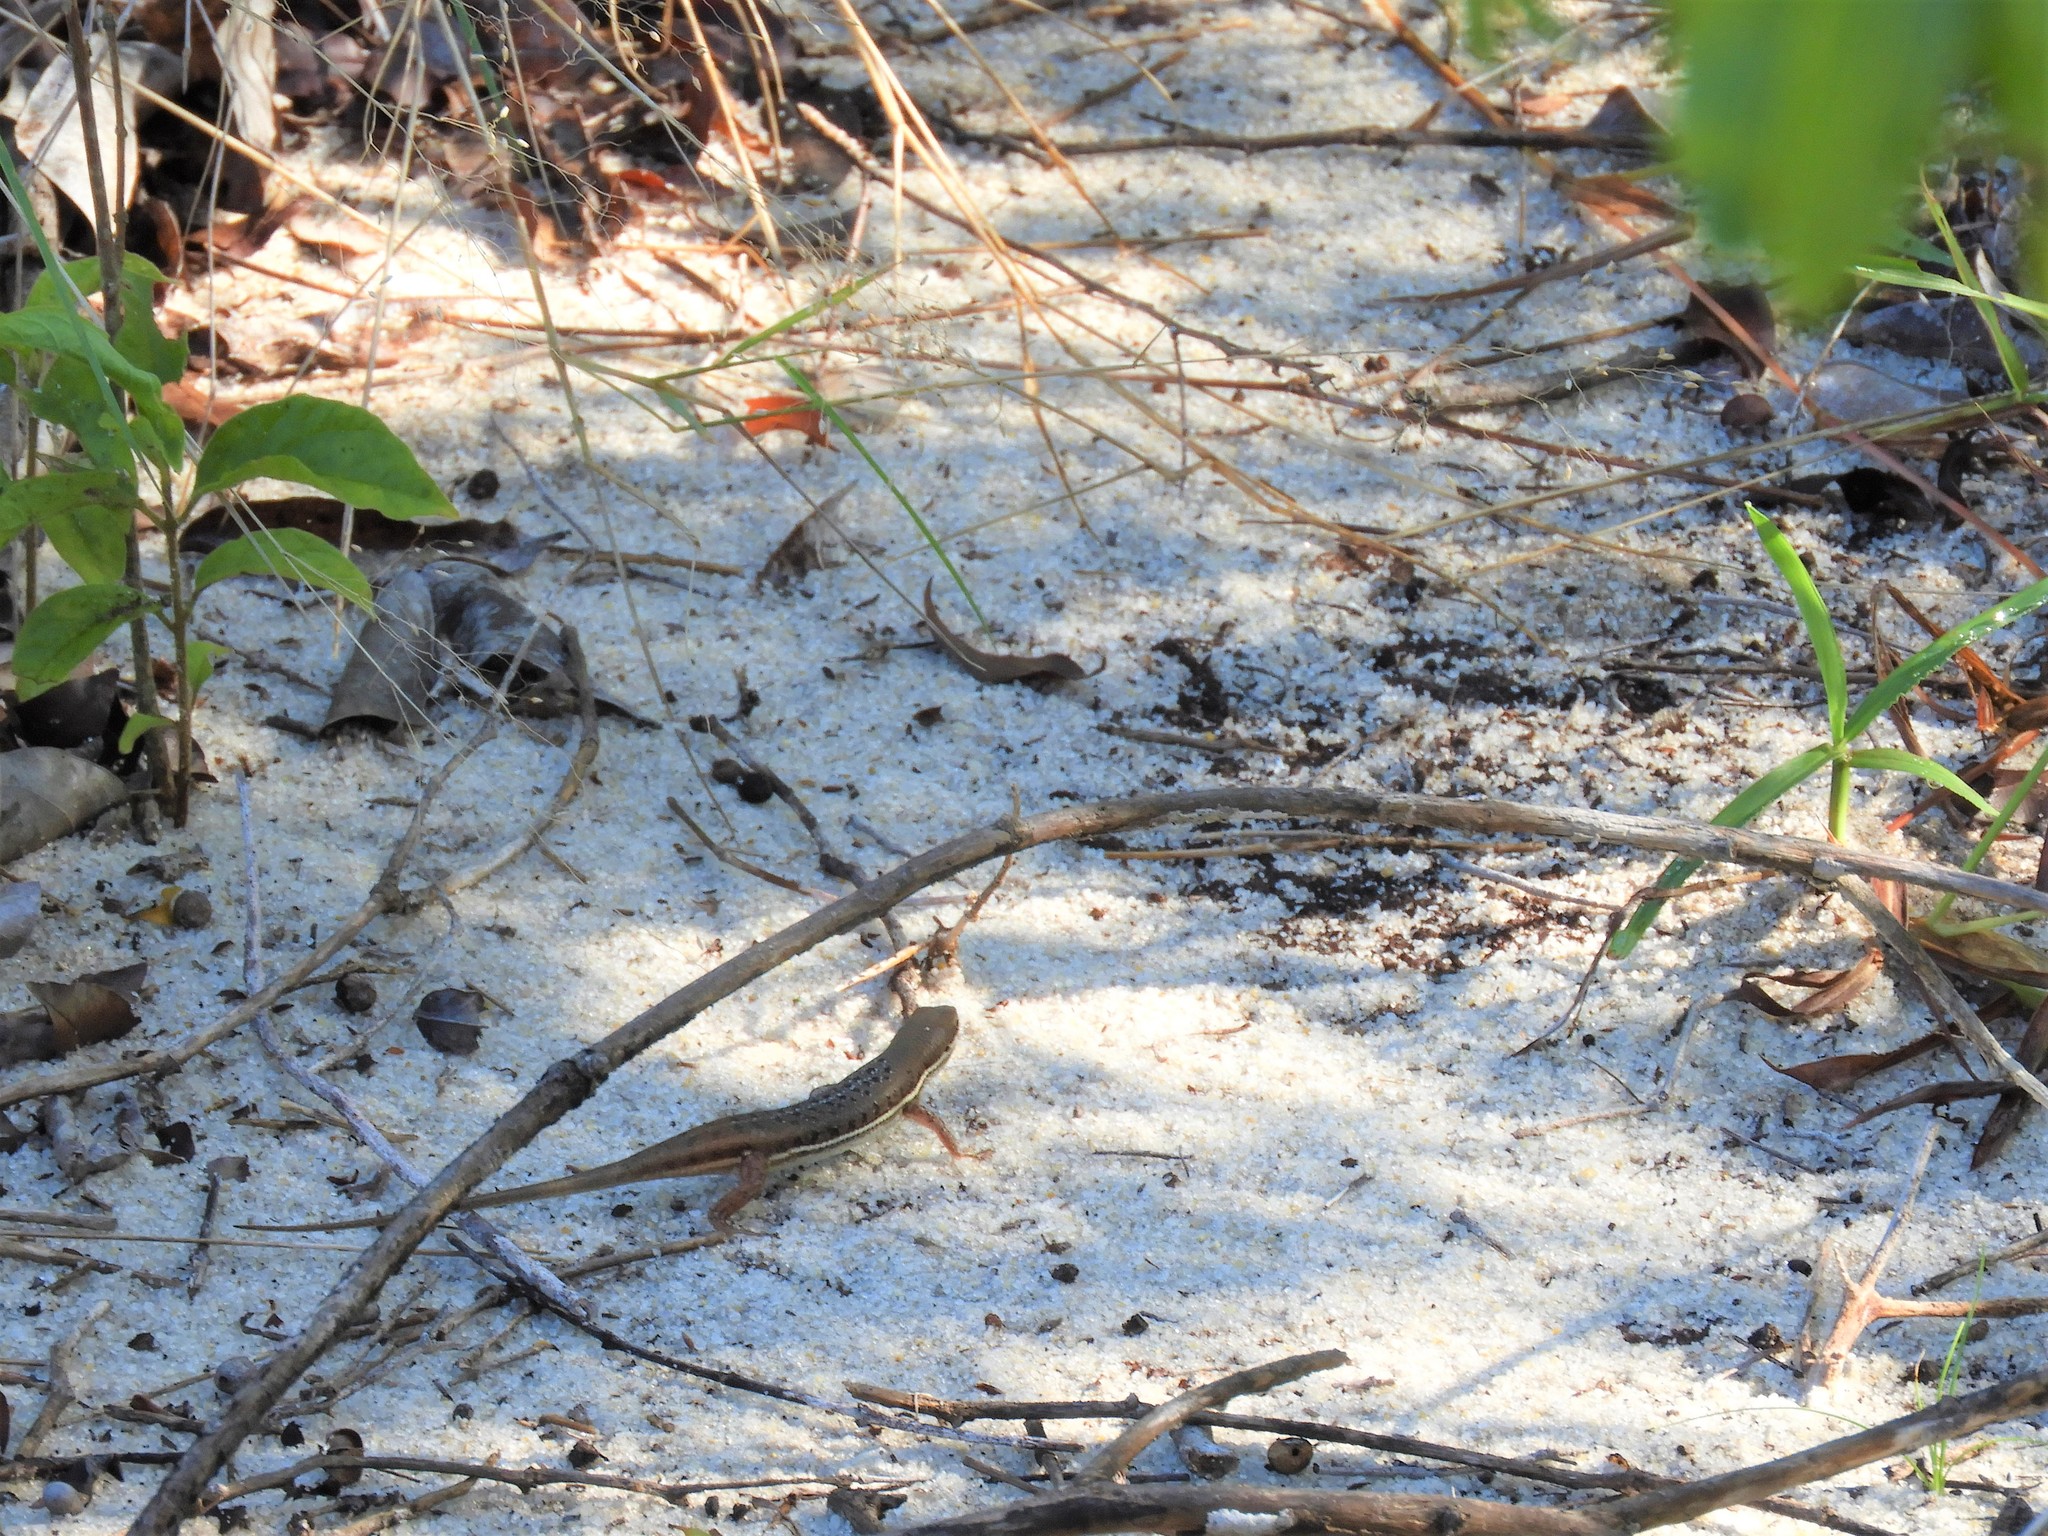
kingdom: Animalia
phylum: Chordata
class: Squamata
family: Scincidae
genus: Trachylepis
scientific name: Trachylepis varia
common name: Eastern variable skink
